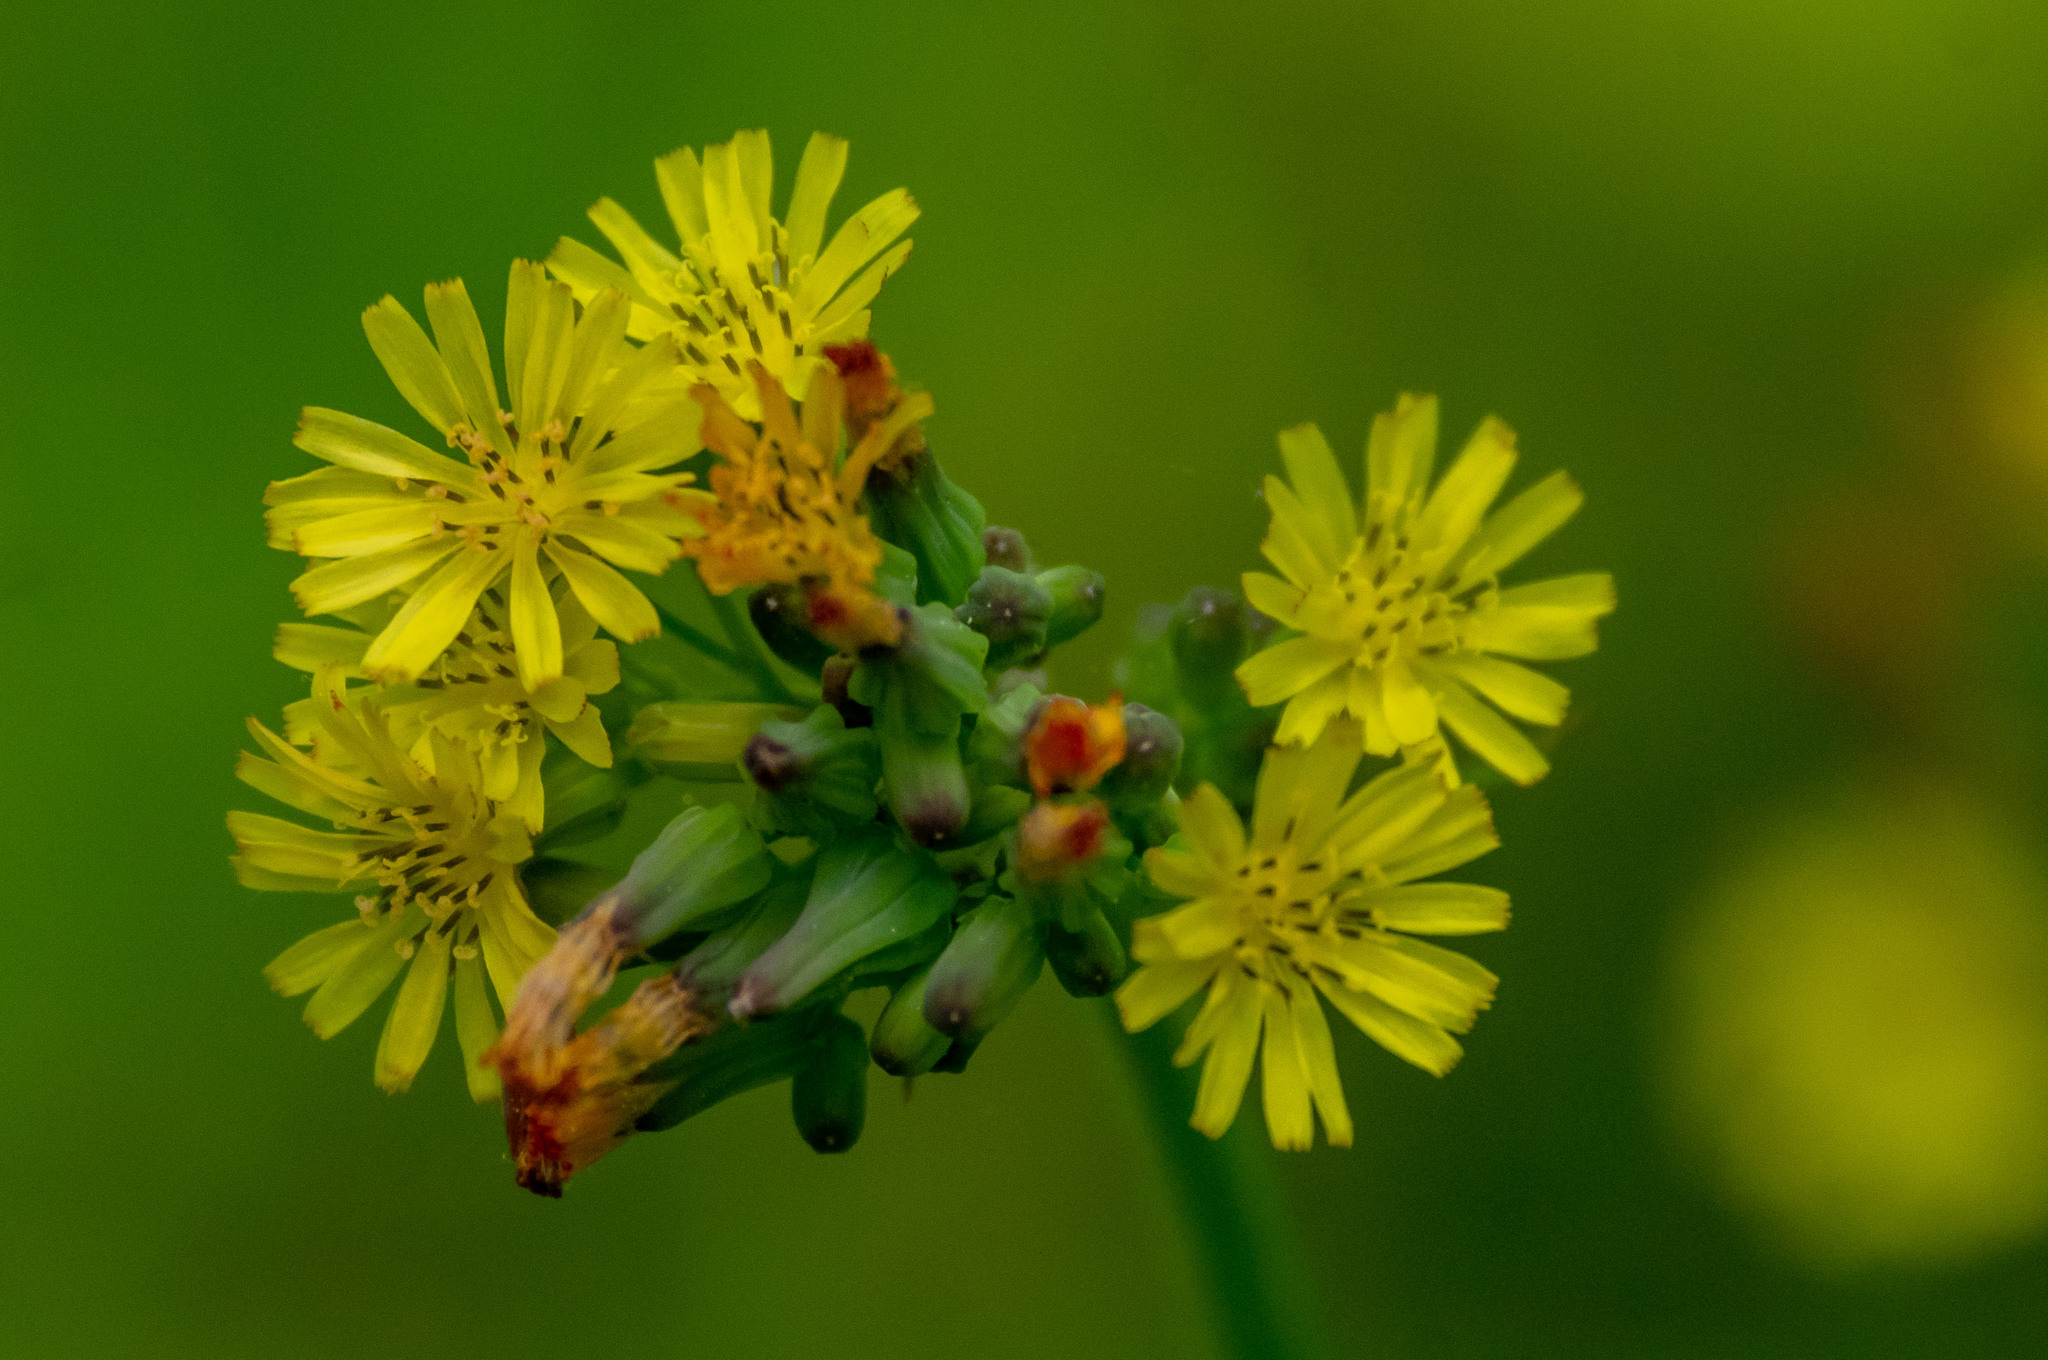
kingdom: Plantae
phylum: Tracheophyta
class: Magnoliopsida
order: Asterales
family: Asteraceae
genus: Youngia
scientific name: Youngia japonica
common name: Oriental false hawksbeard
